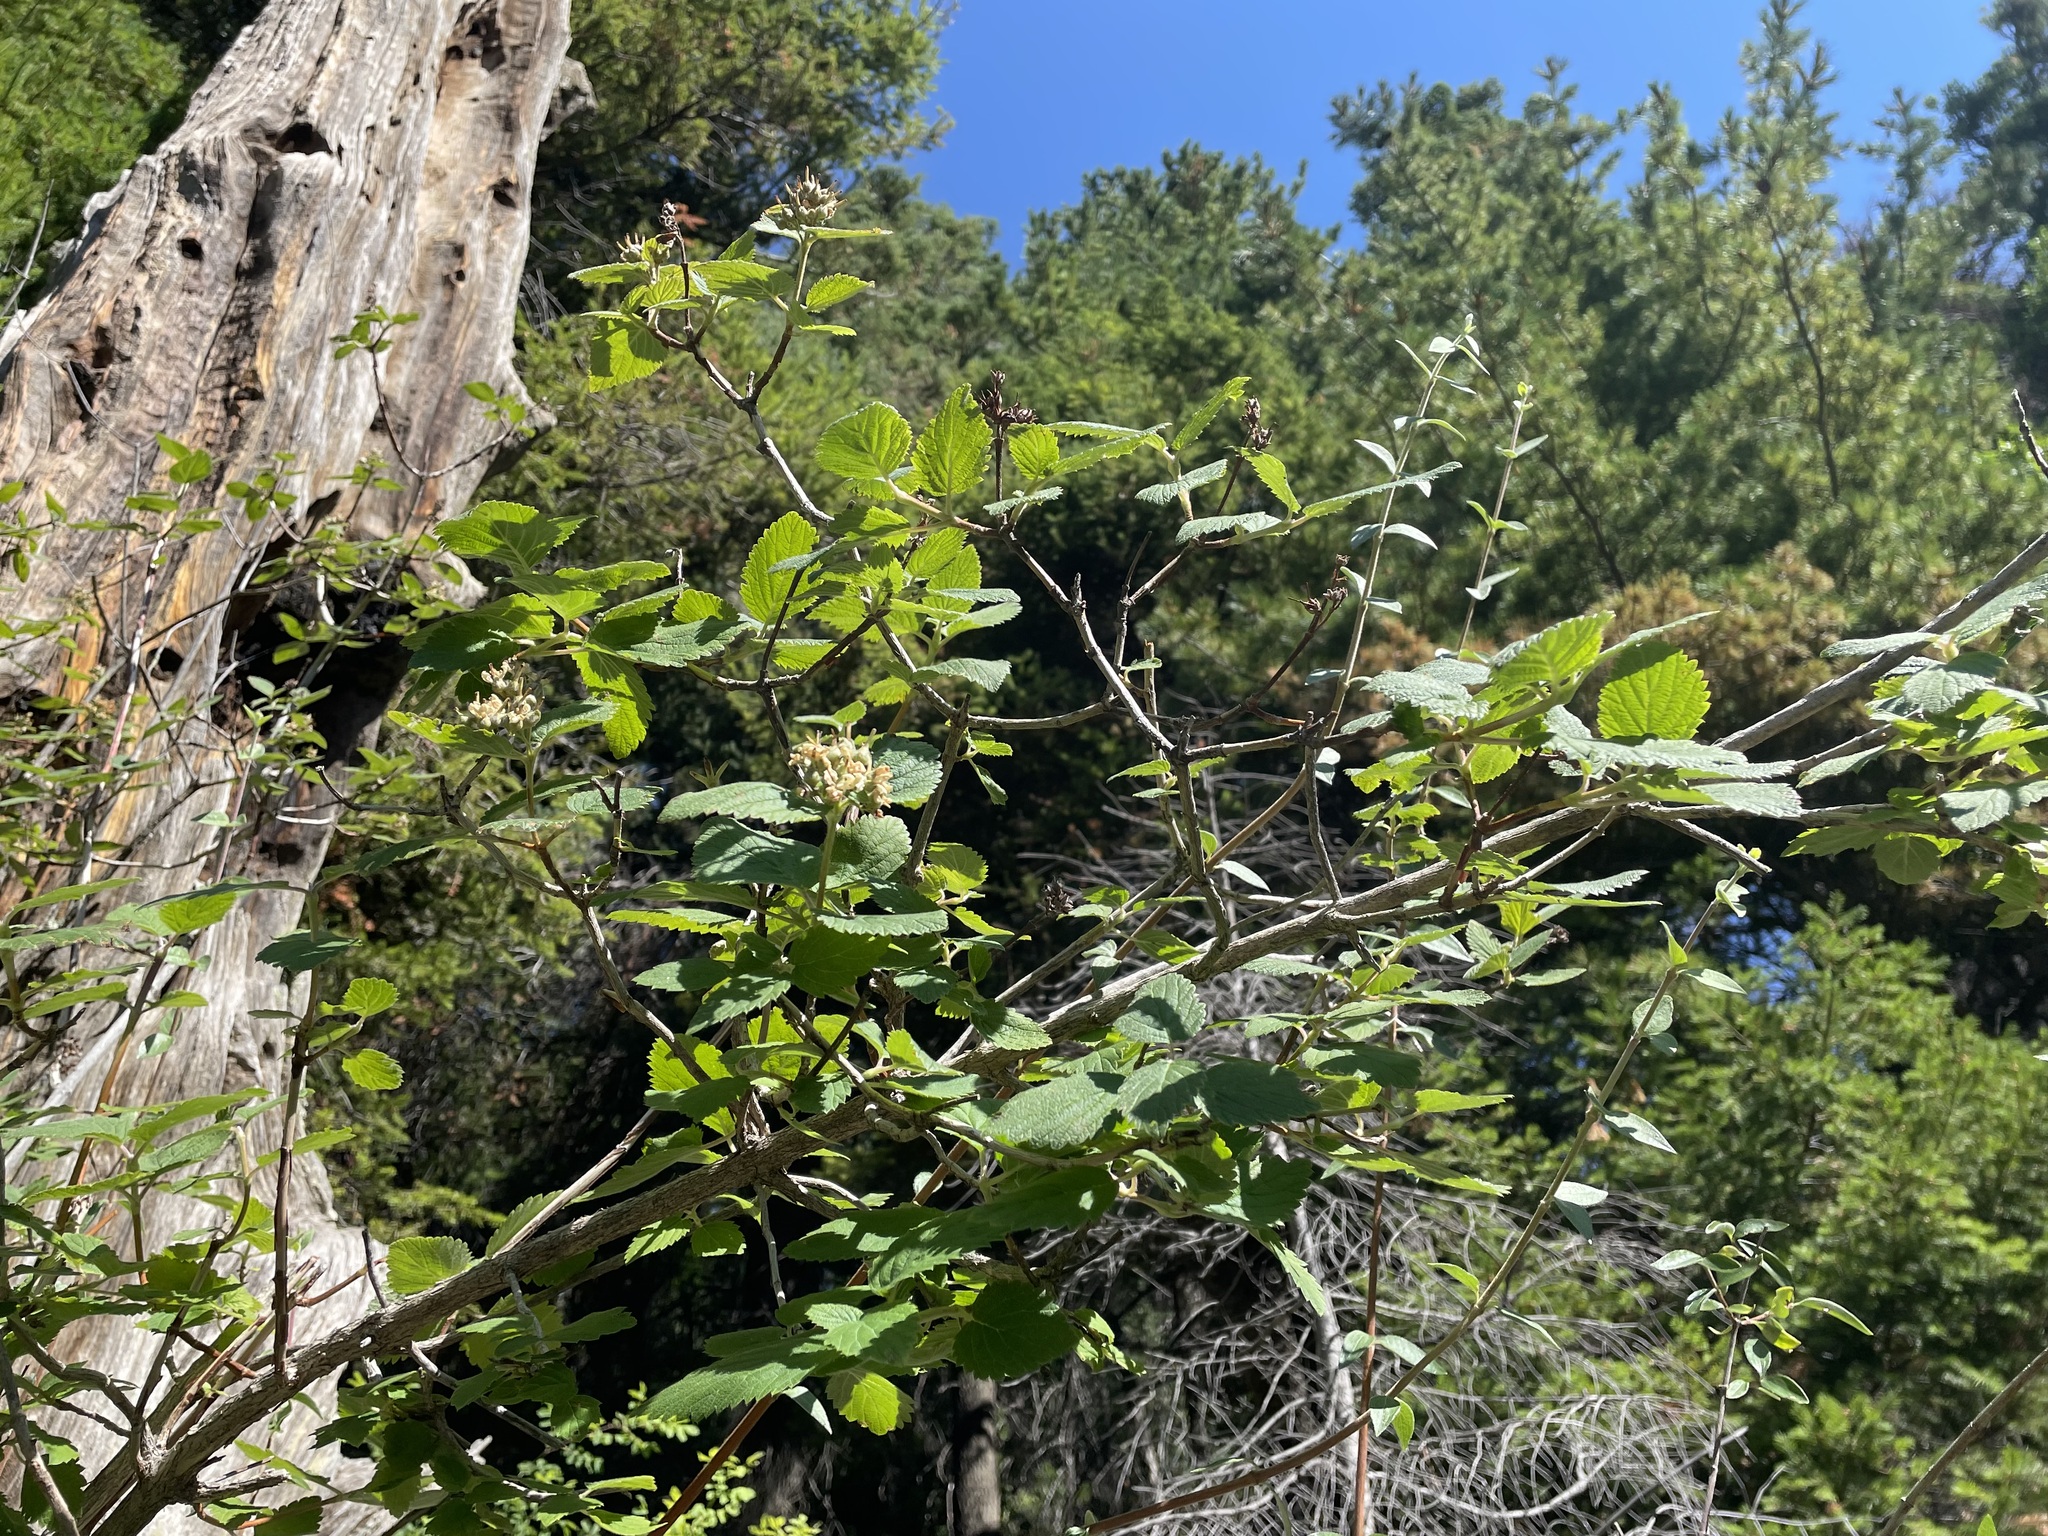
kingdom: Plantae
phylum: Tracheophyta
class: Magnoliopsida
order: Cornales
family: Hydrangeaceae
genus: Jamesia
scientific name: Jamesia americana
